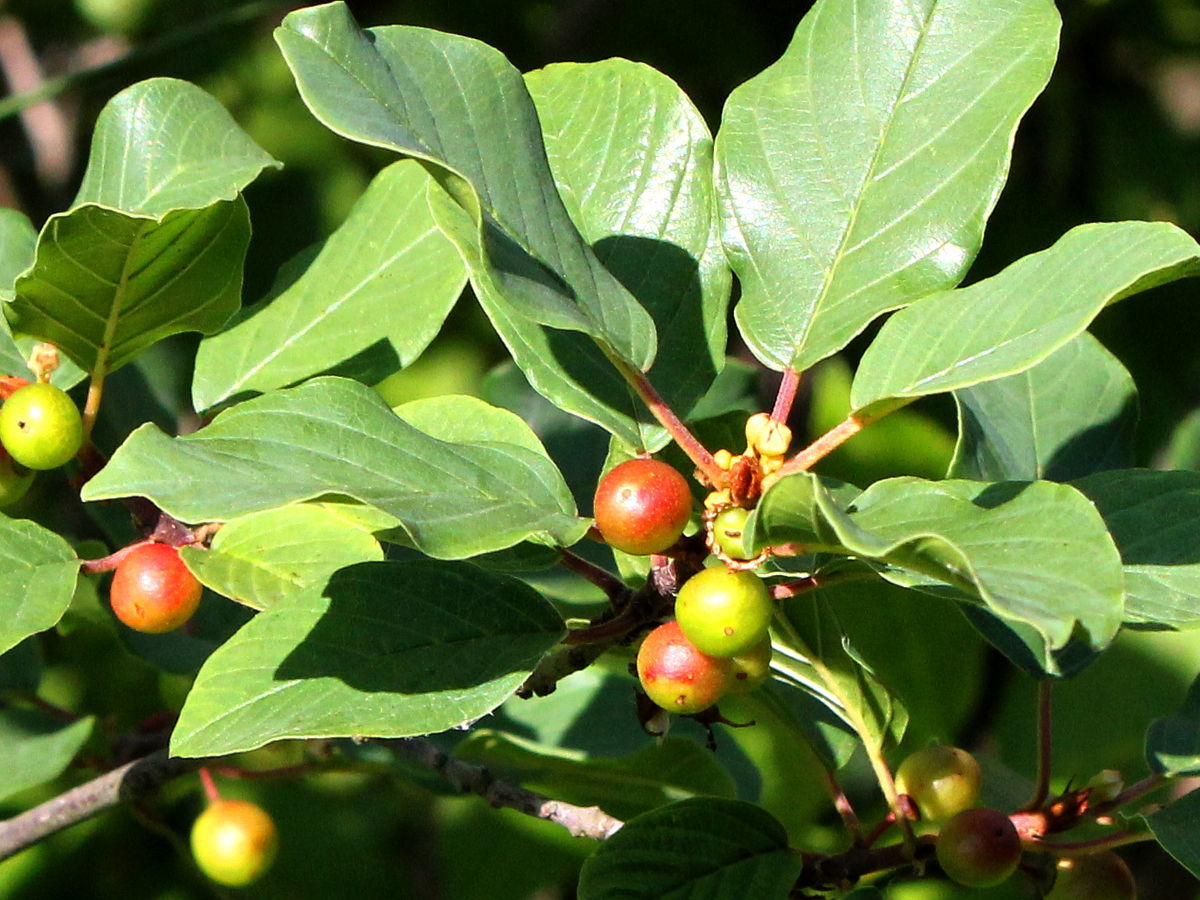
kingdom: Plantae
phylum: Tracheophyta
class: Magnoliopsida
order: Rosales
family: Rhamnaceae
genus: Frangula
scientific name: Frangula alnus
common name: Alder buckthorn
